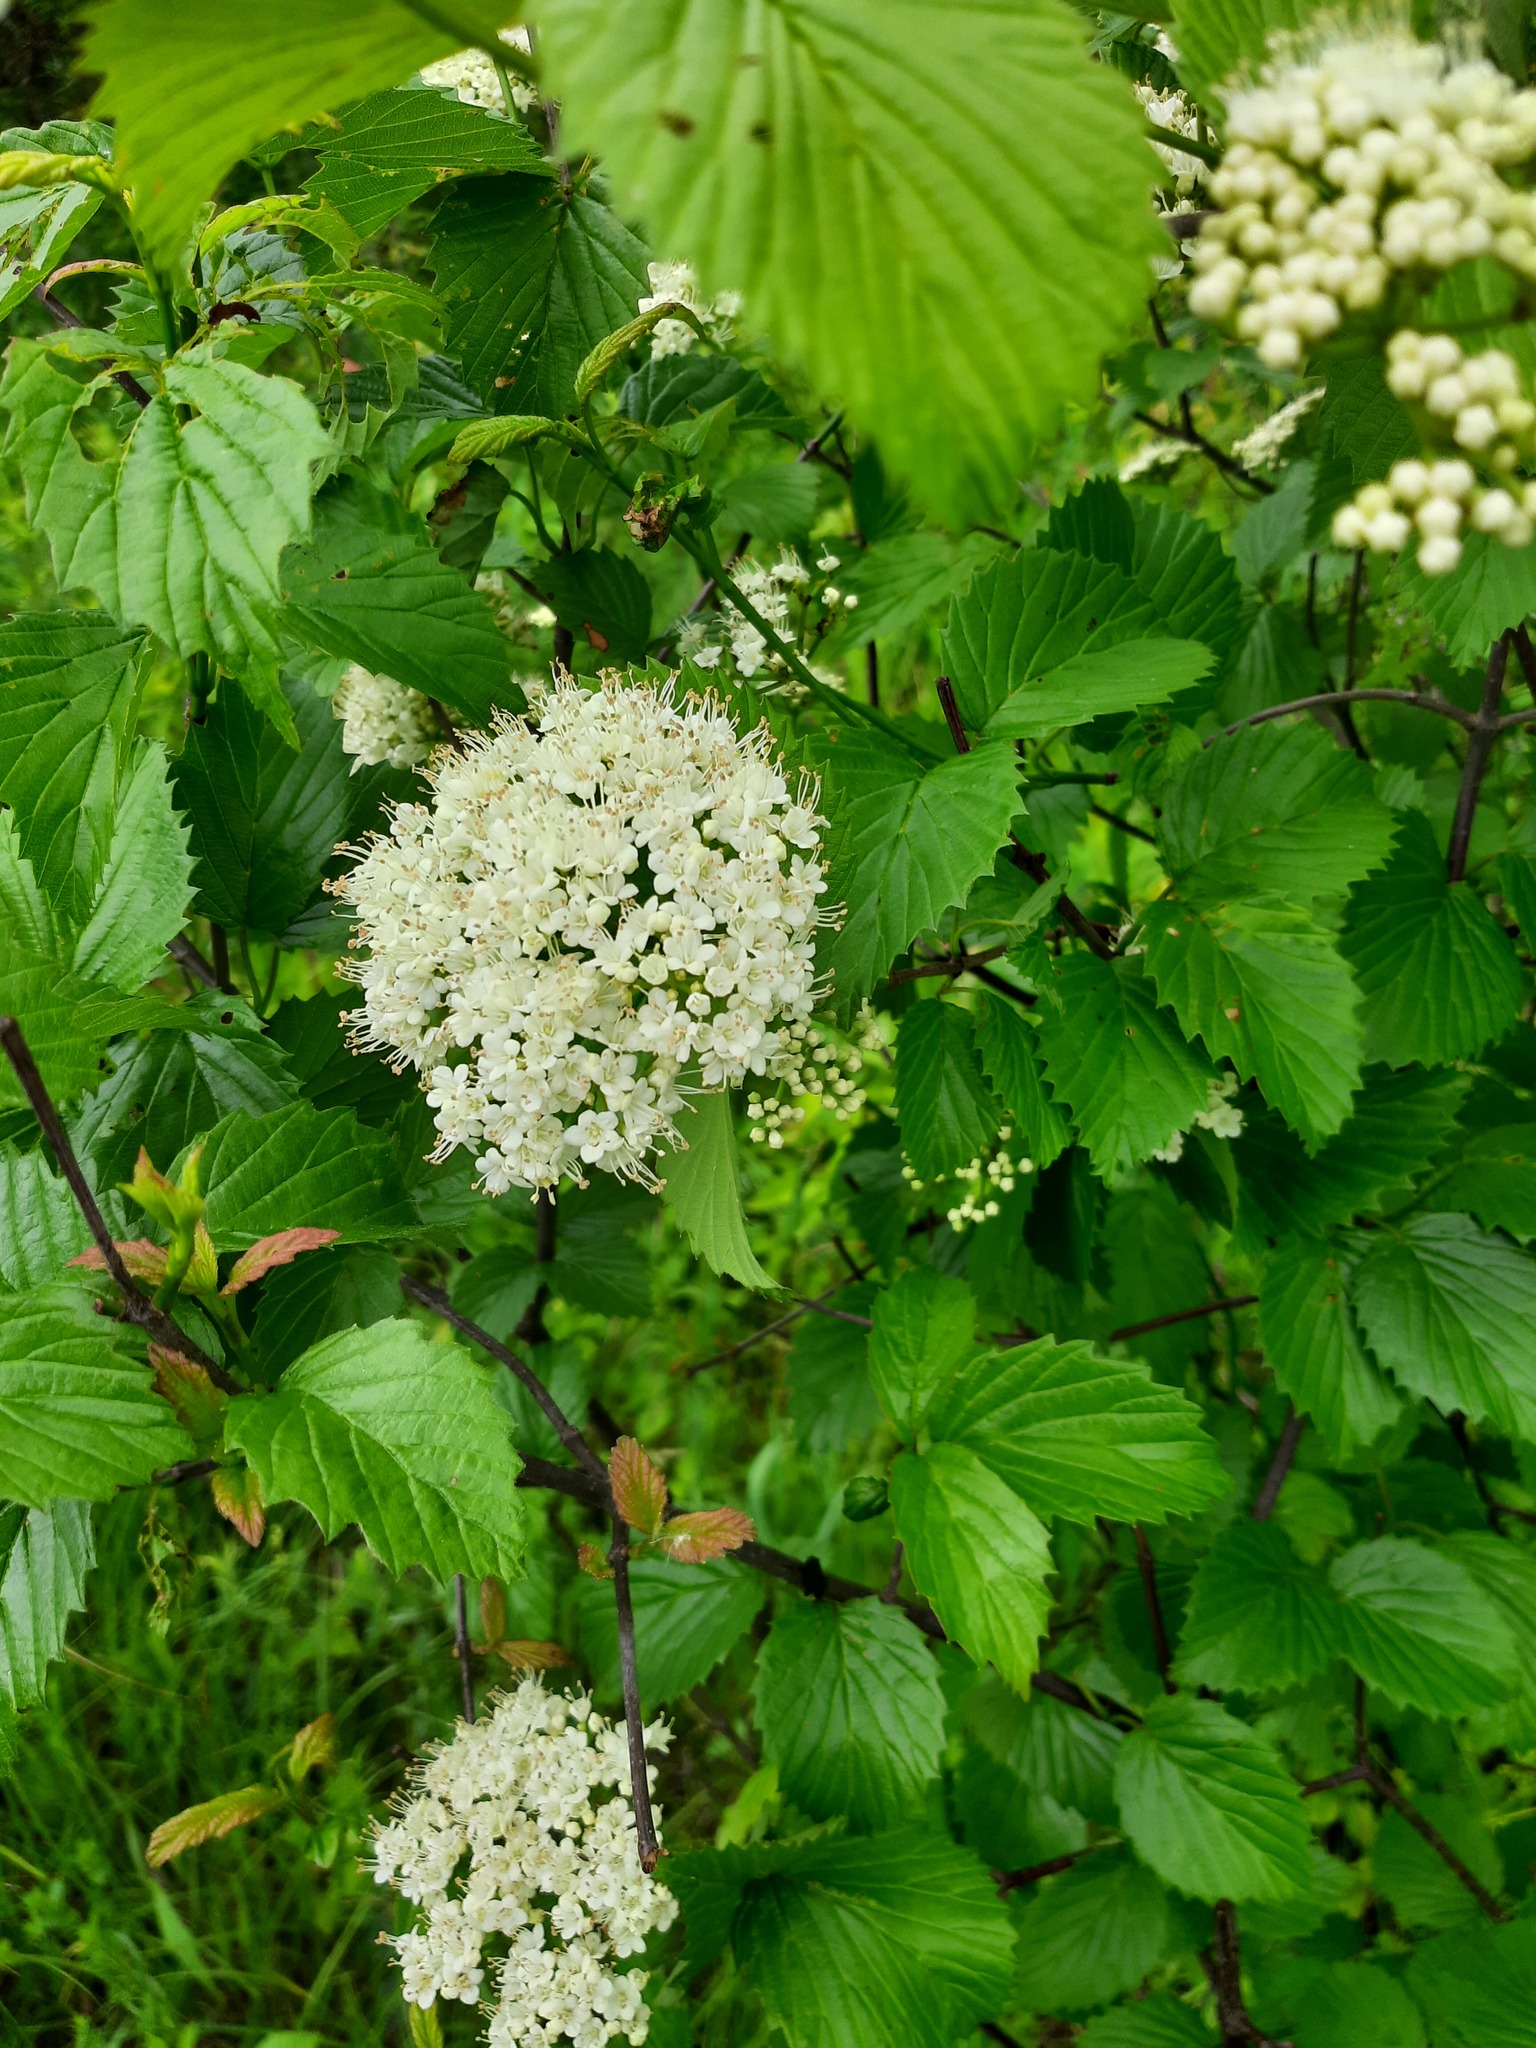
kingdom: Plantae
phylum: Tracheophyta
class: Magnoliopsida
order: Dipsacales
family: Viburnaceae
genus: Viburnum
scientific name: Viburnum recognitum
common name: Northern arrow-wood
